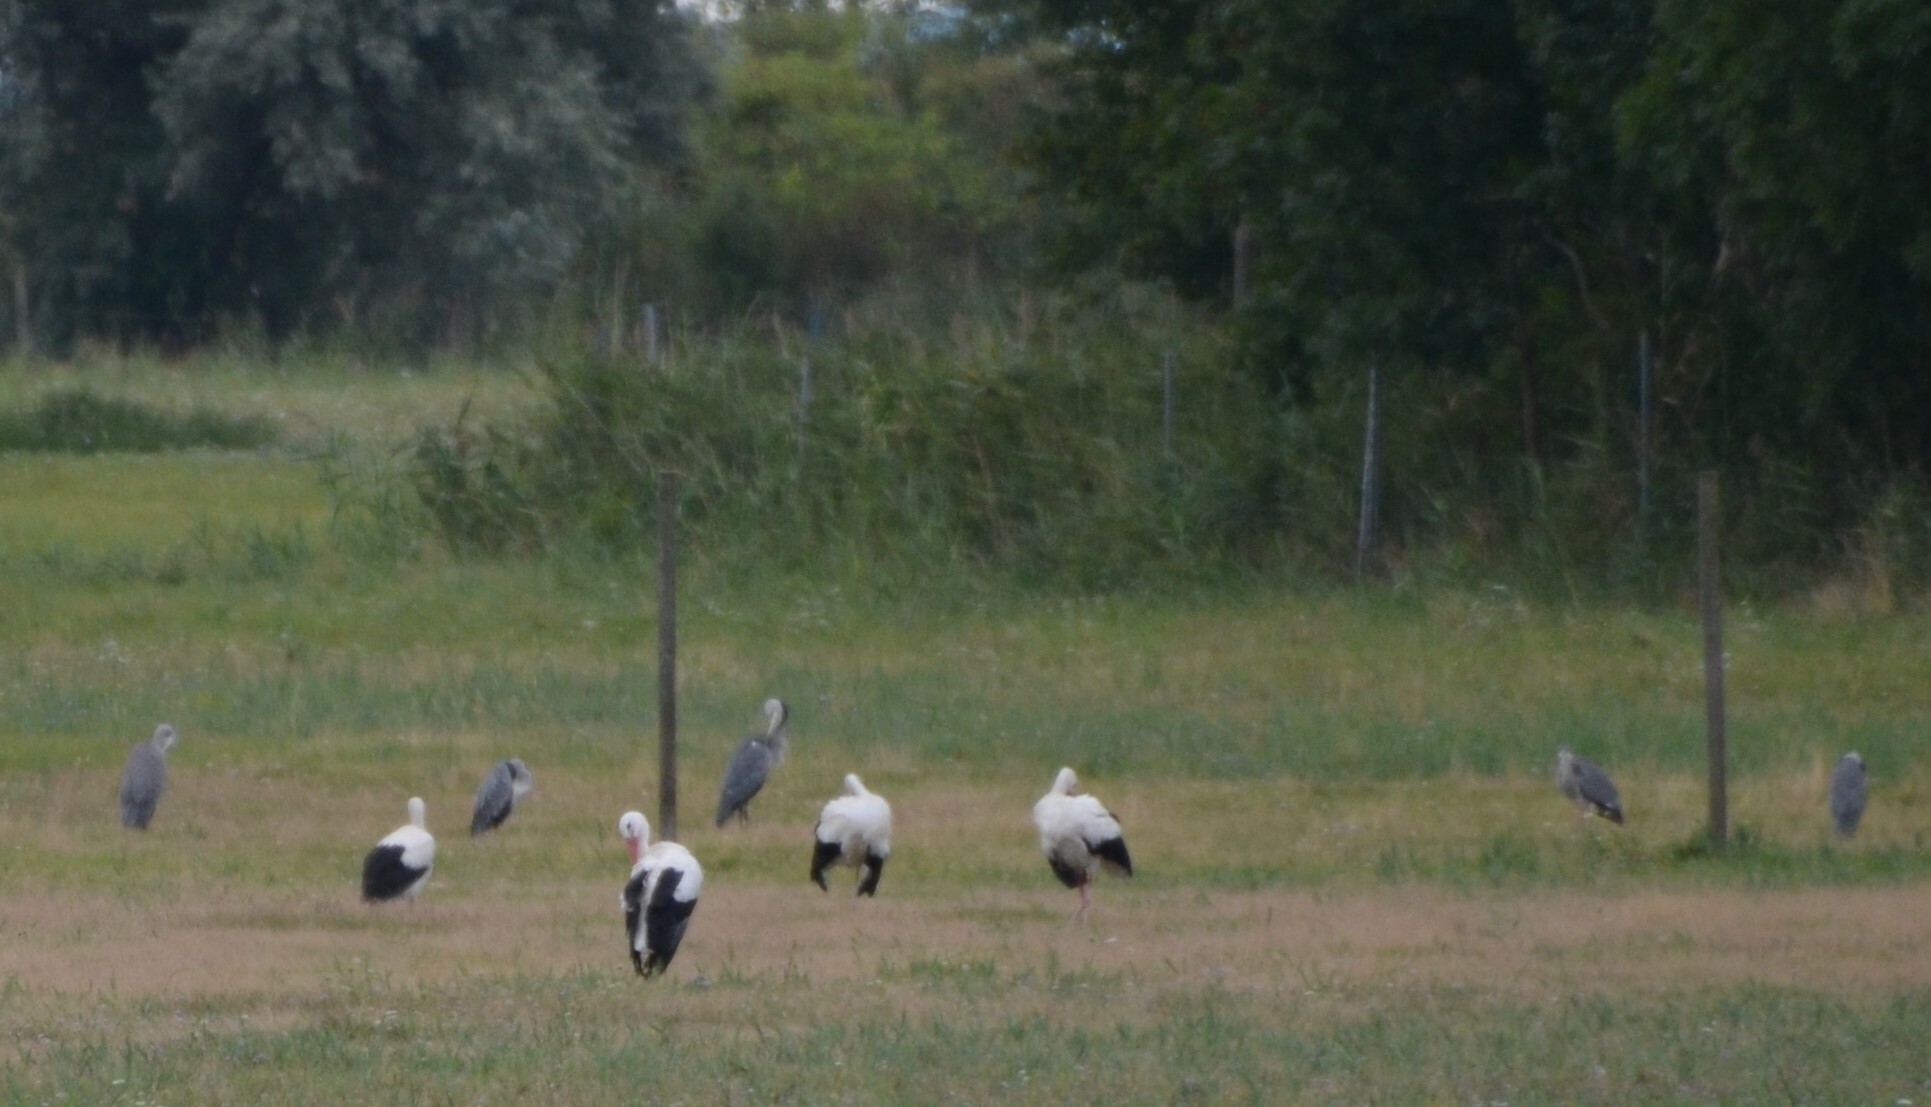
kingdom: Animalia
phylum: Chordata
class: Aves
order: Pelecaniformes
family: Ardeidae
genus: Ardea
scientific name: Ardea cinerea
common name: Grey heron
